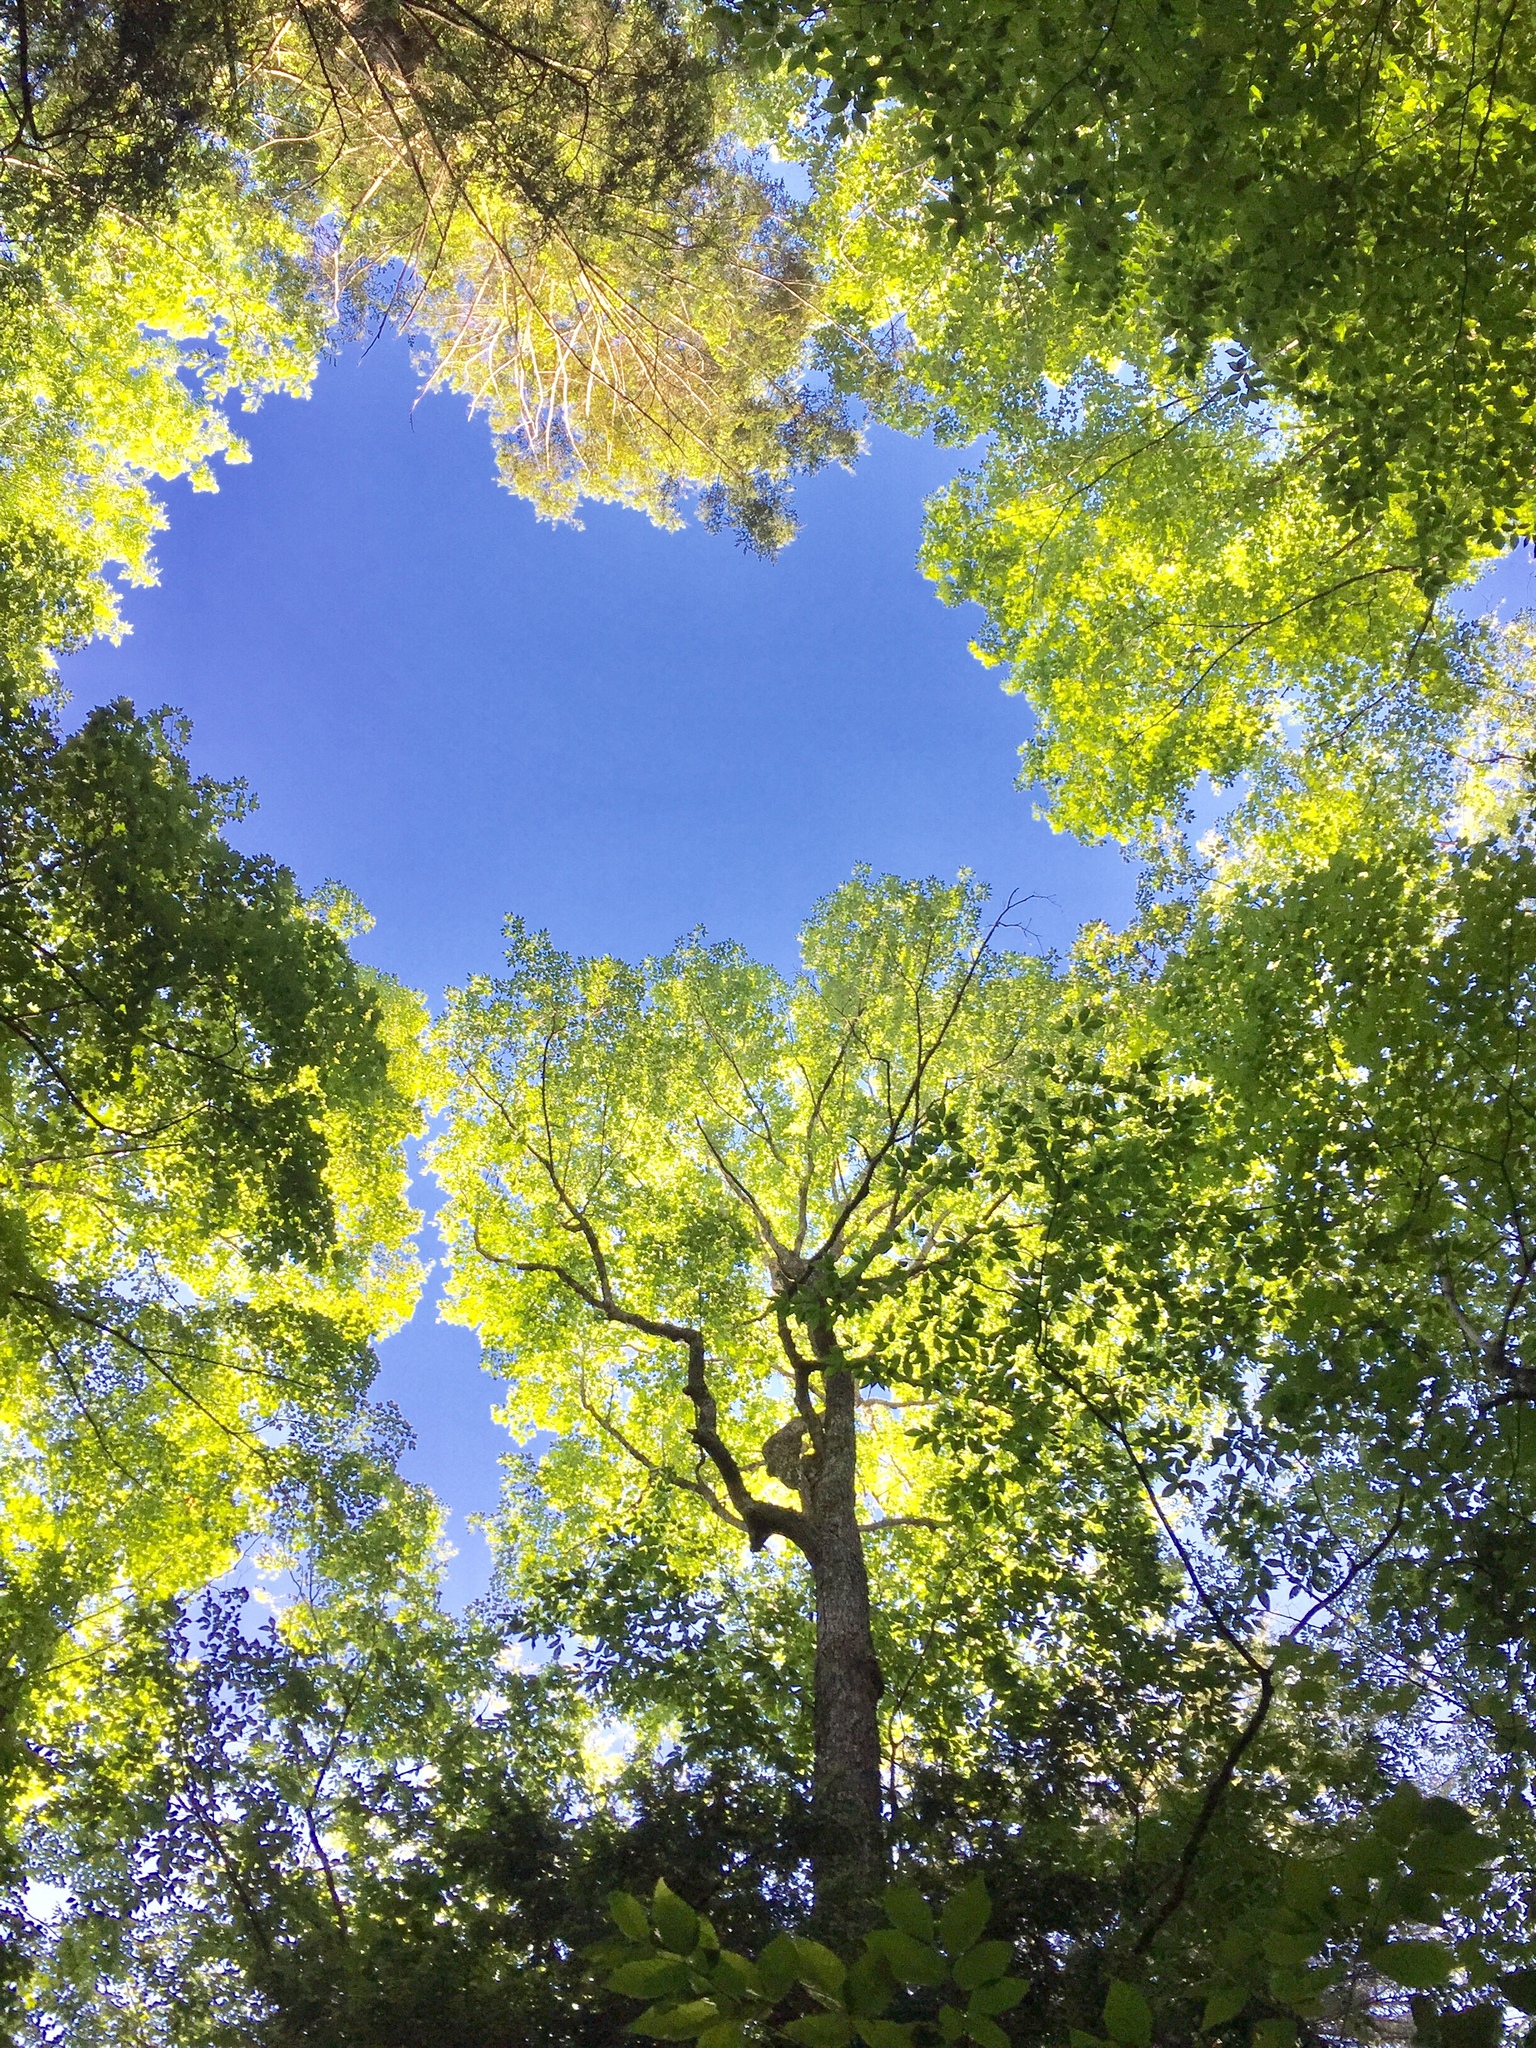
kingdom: Plantae
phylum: Tracheophyta
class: Magnoliopsida
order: Sapindales
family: Sapindaceae
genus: Acer
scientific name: Acer saccharum
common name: Sugar maple
